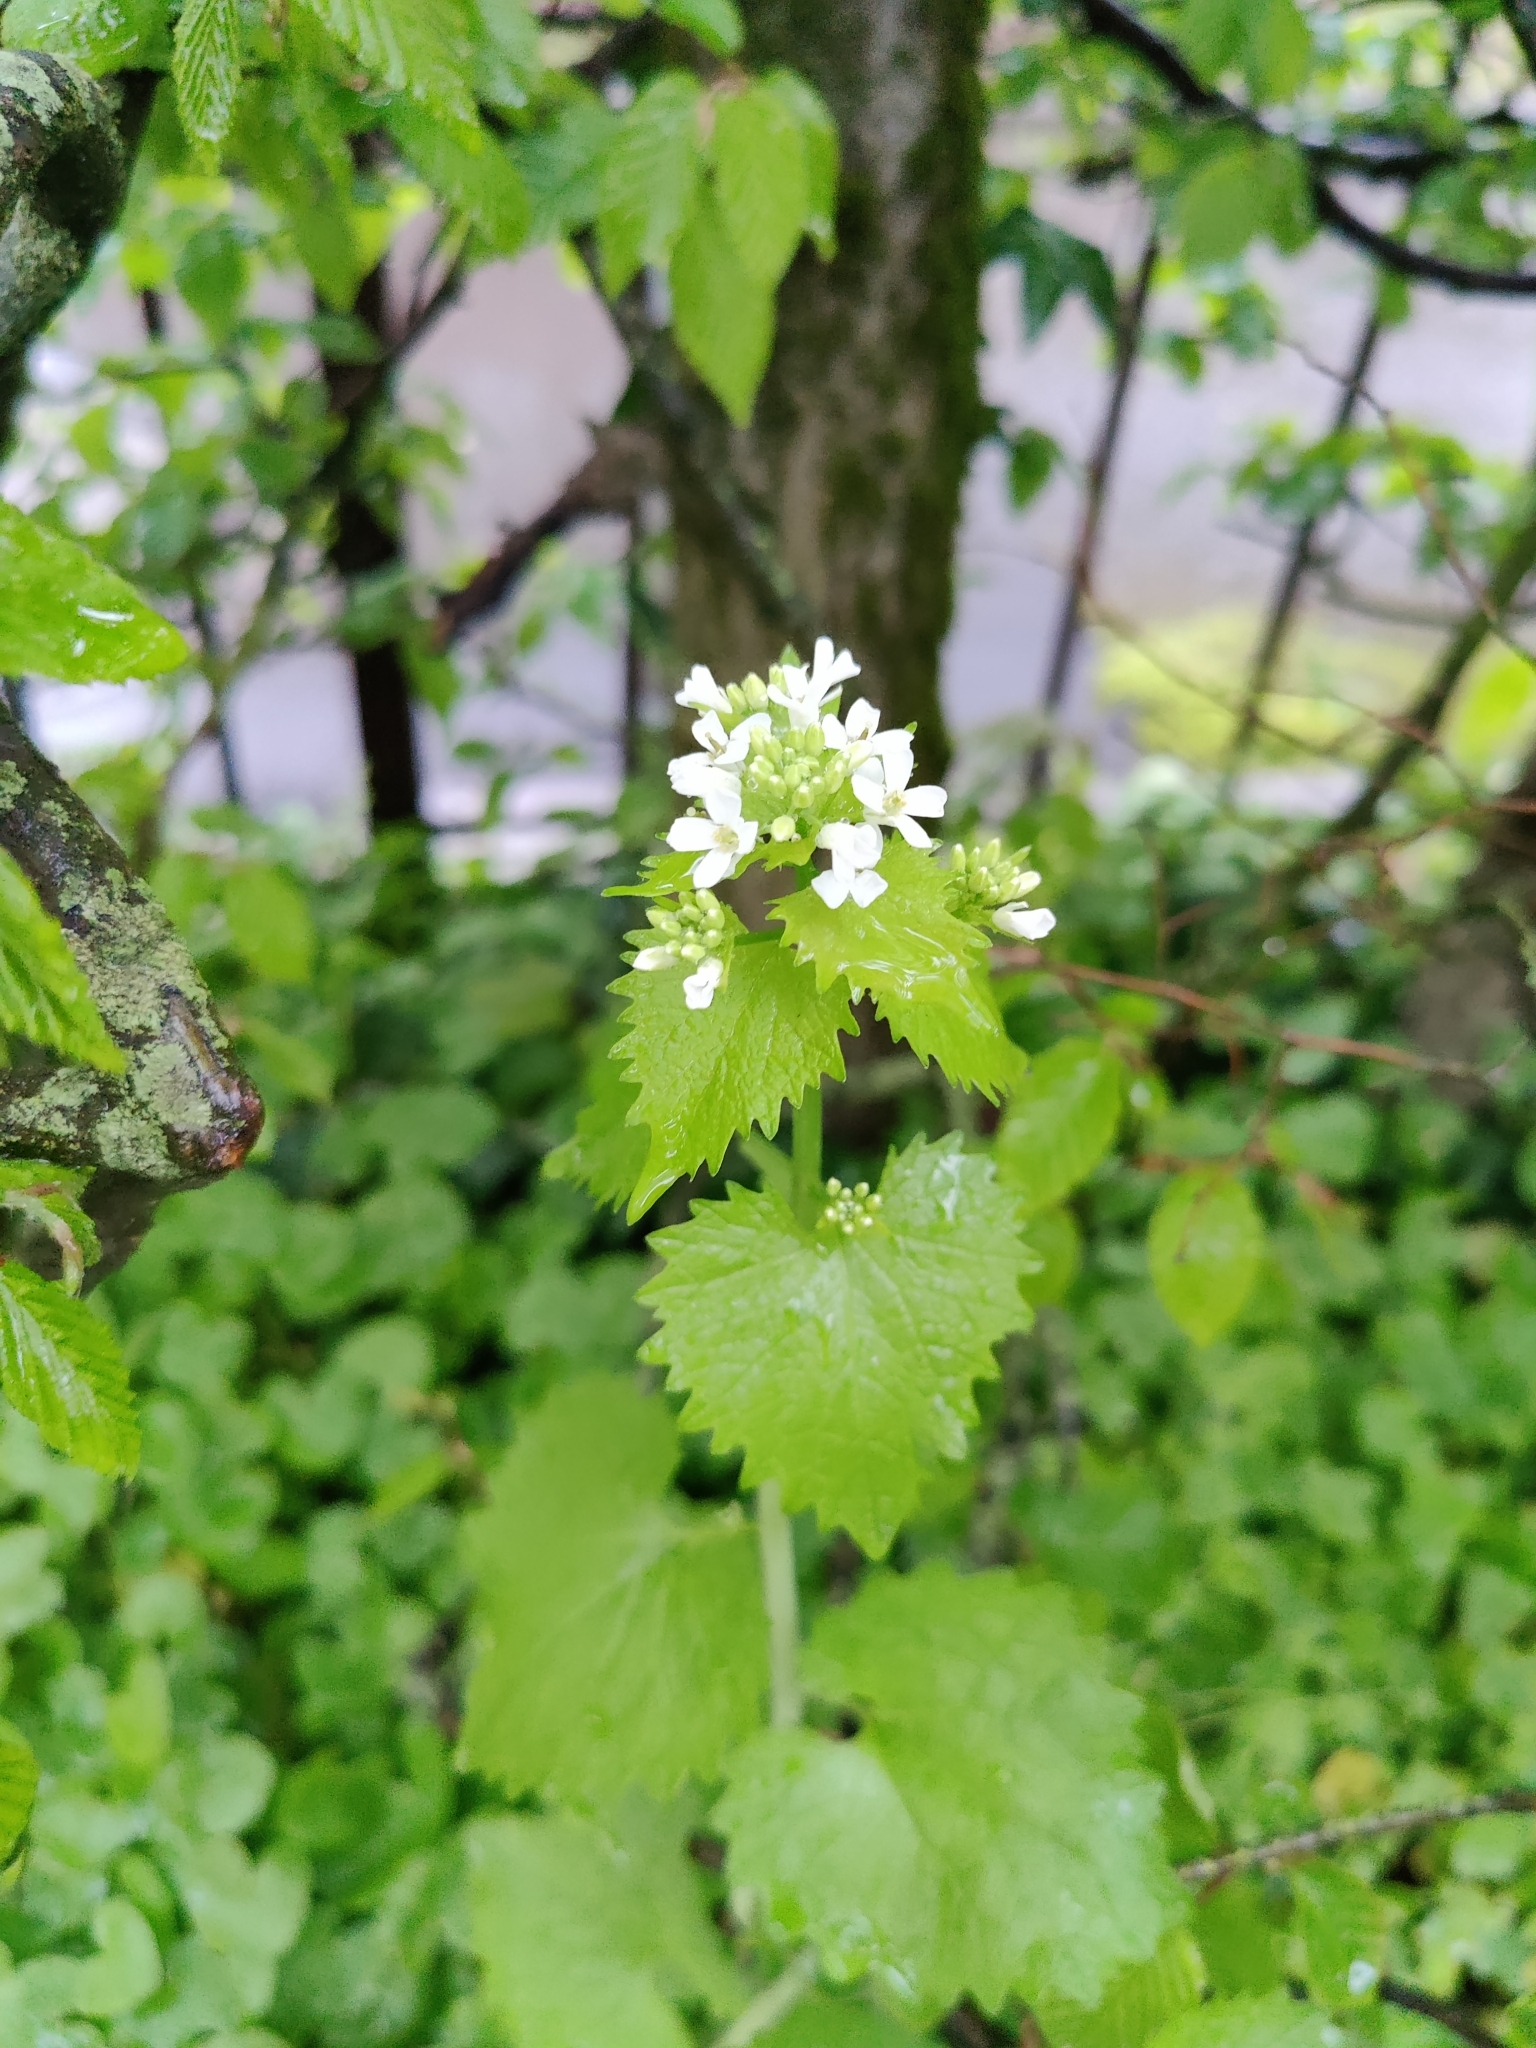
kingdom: Plantae
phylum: Tracheophyta
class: Magnoliopsida
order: Brassicales
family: Brassicaceae
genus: Alliaria
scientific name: Alliaria petiolata
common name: Garlic mustard
